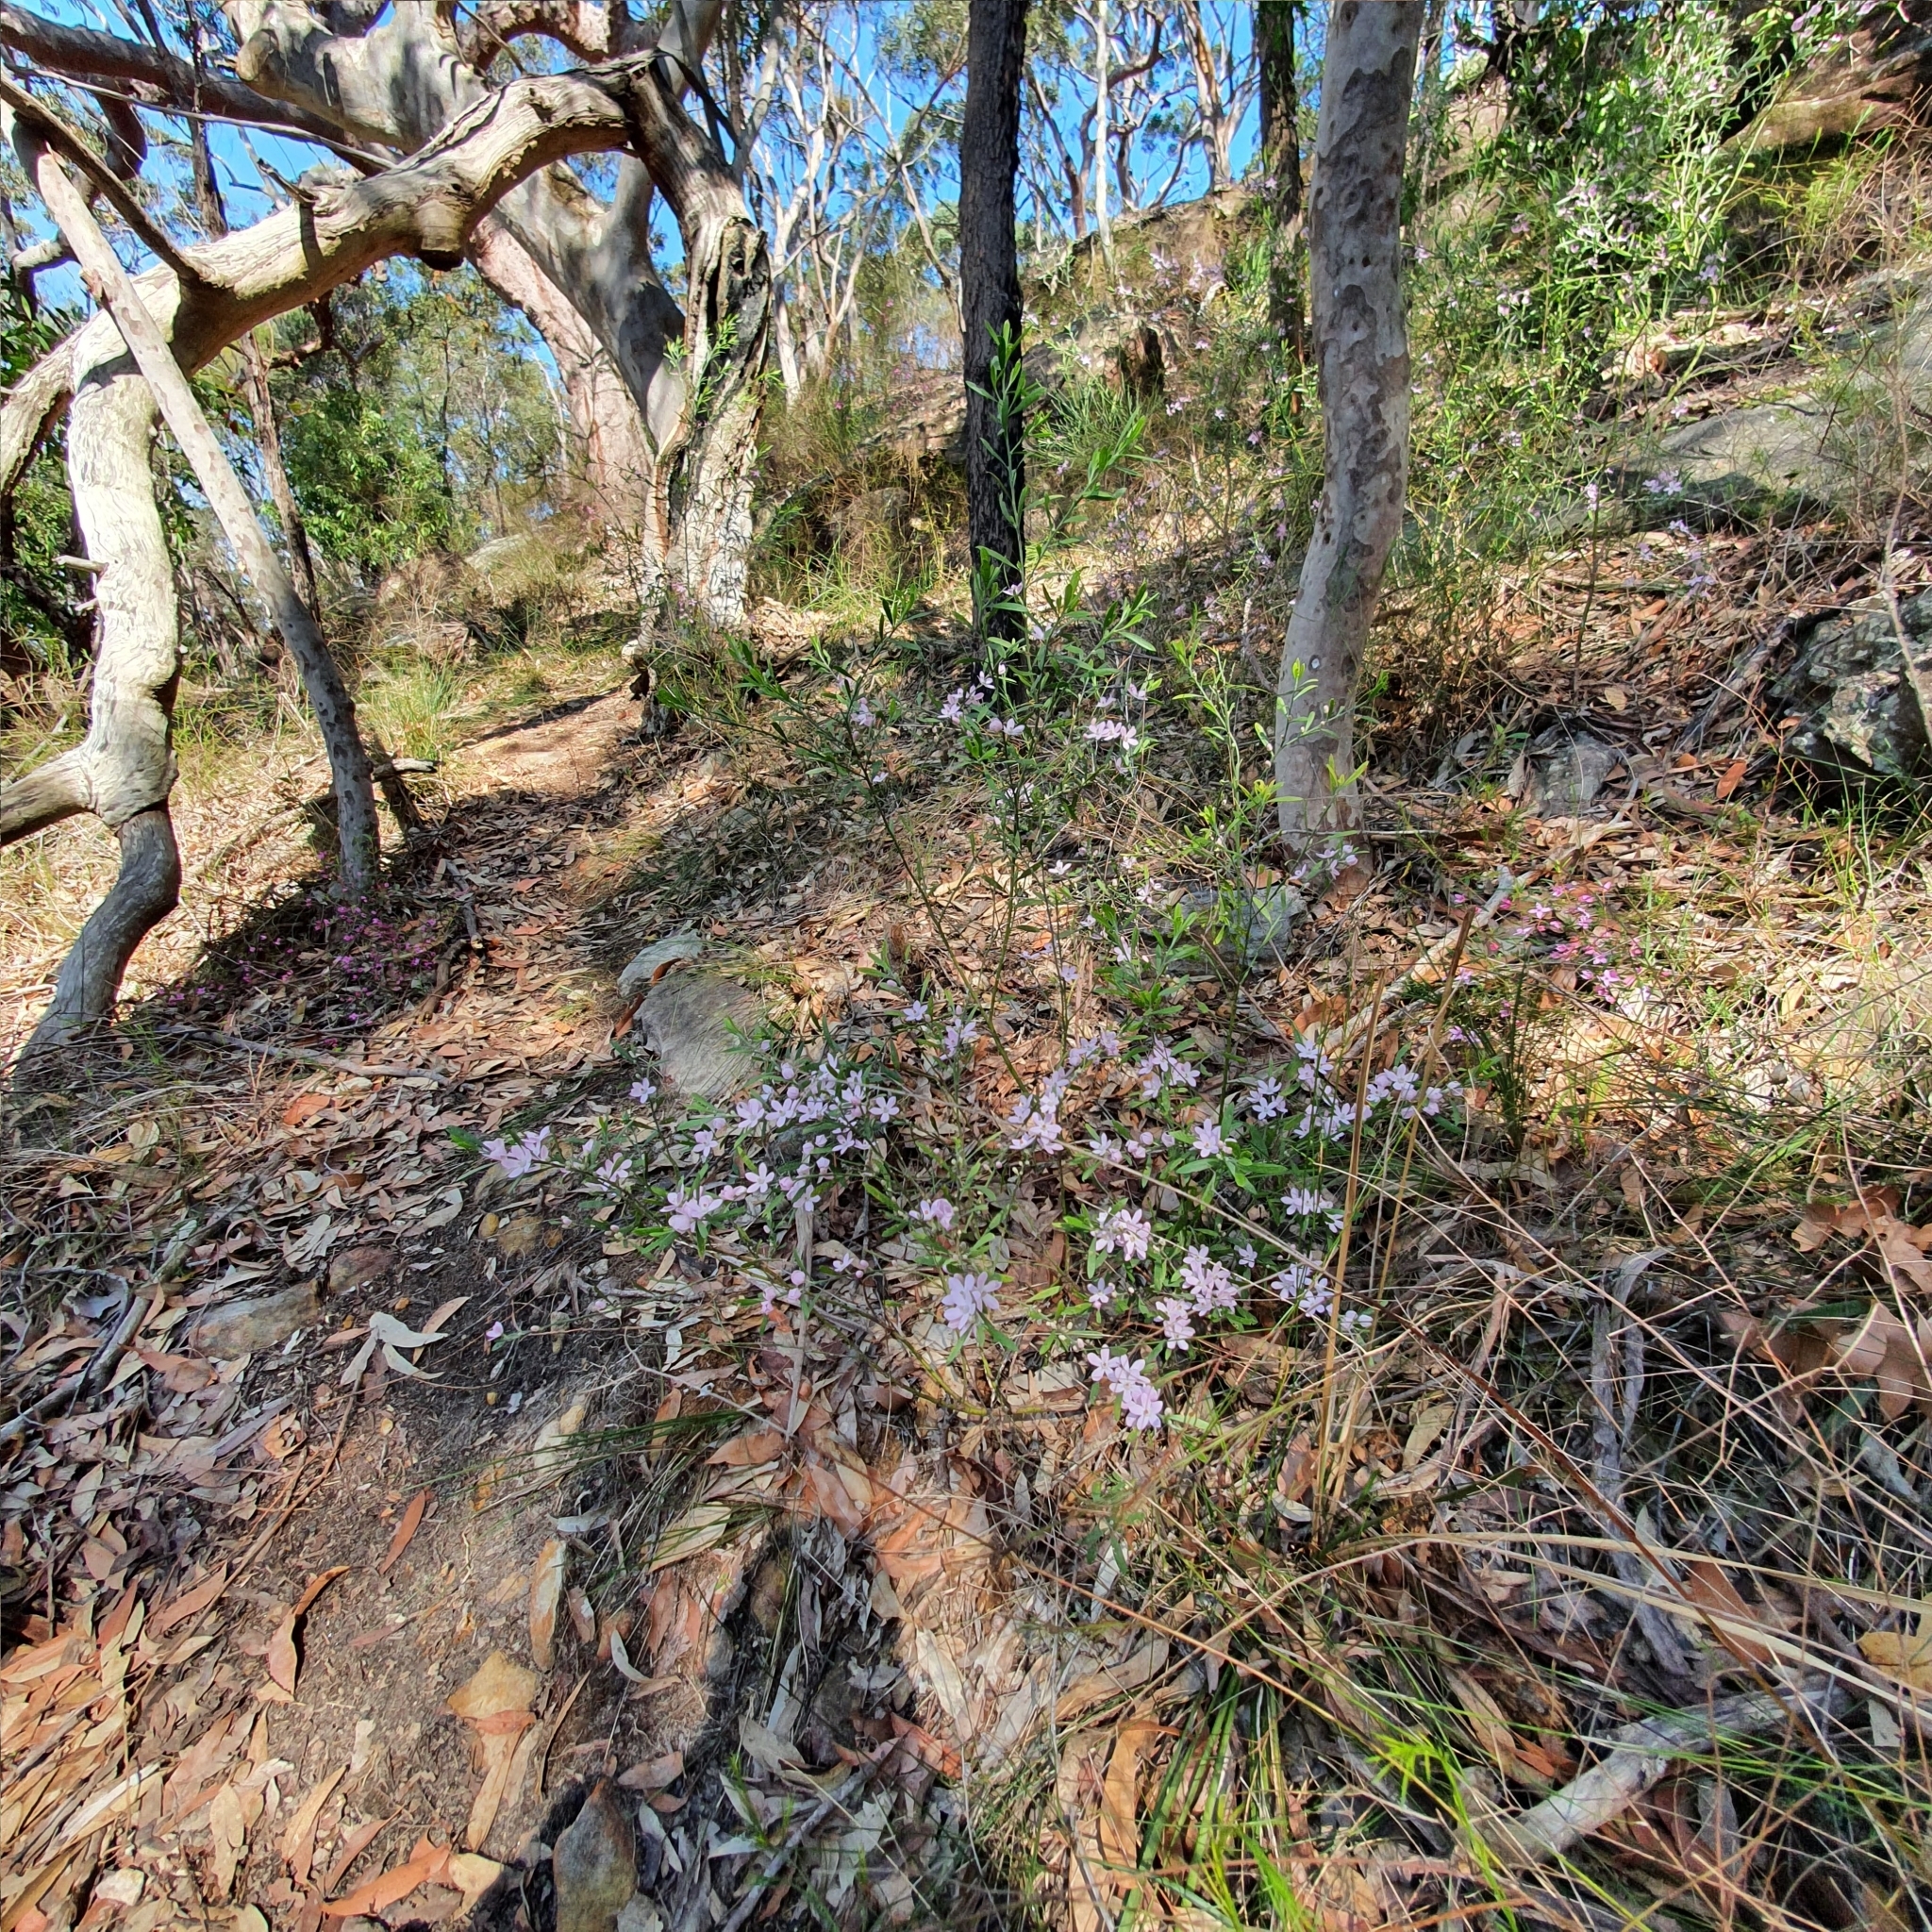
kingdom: Plantae
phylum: Tracheophyta
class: Magnoliopsida
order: Sapindales
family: Rutaceae
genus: Eriostemon
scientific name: Eriostemon australasius
